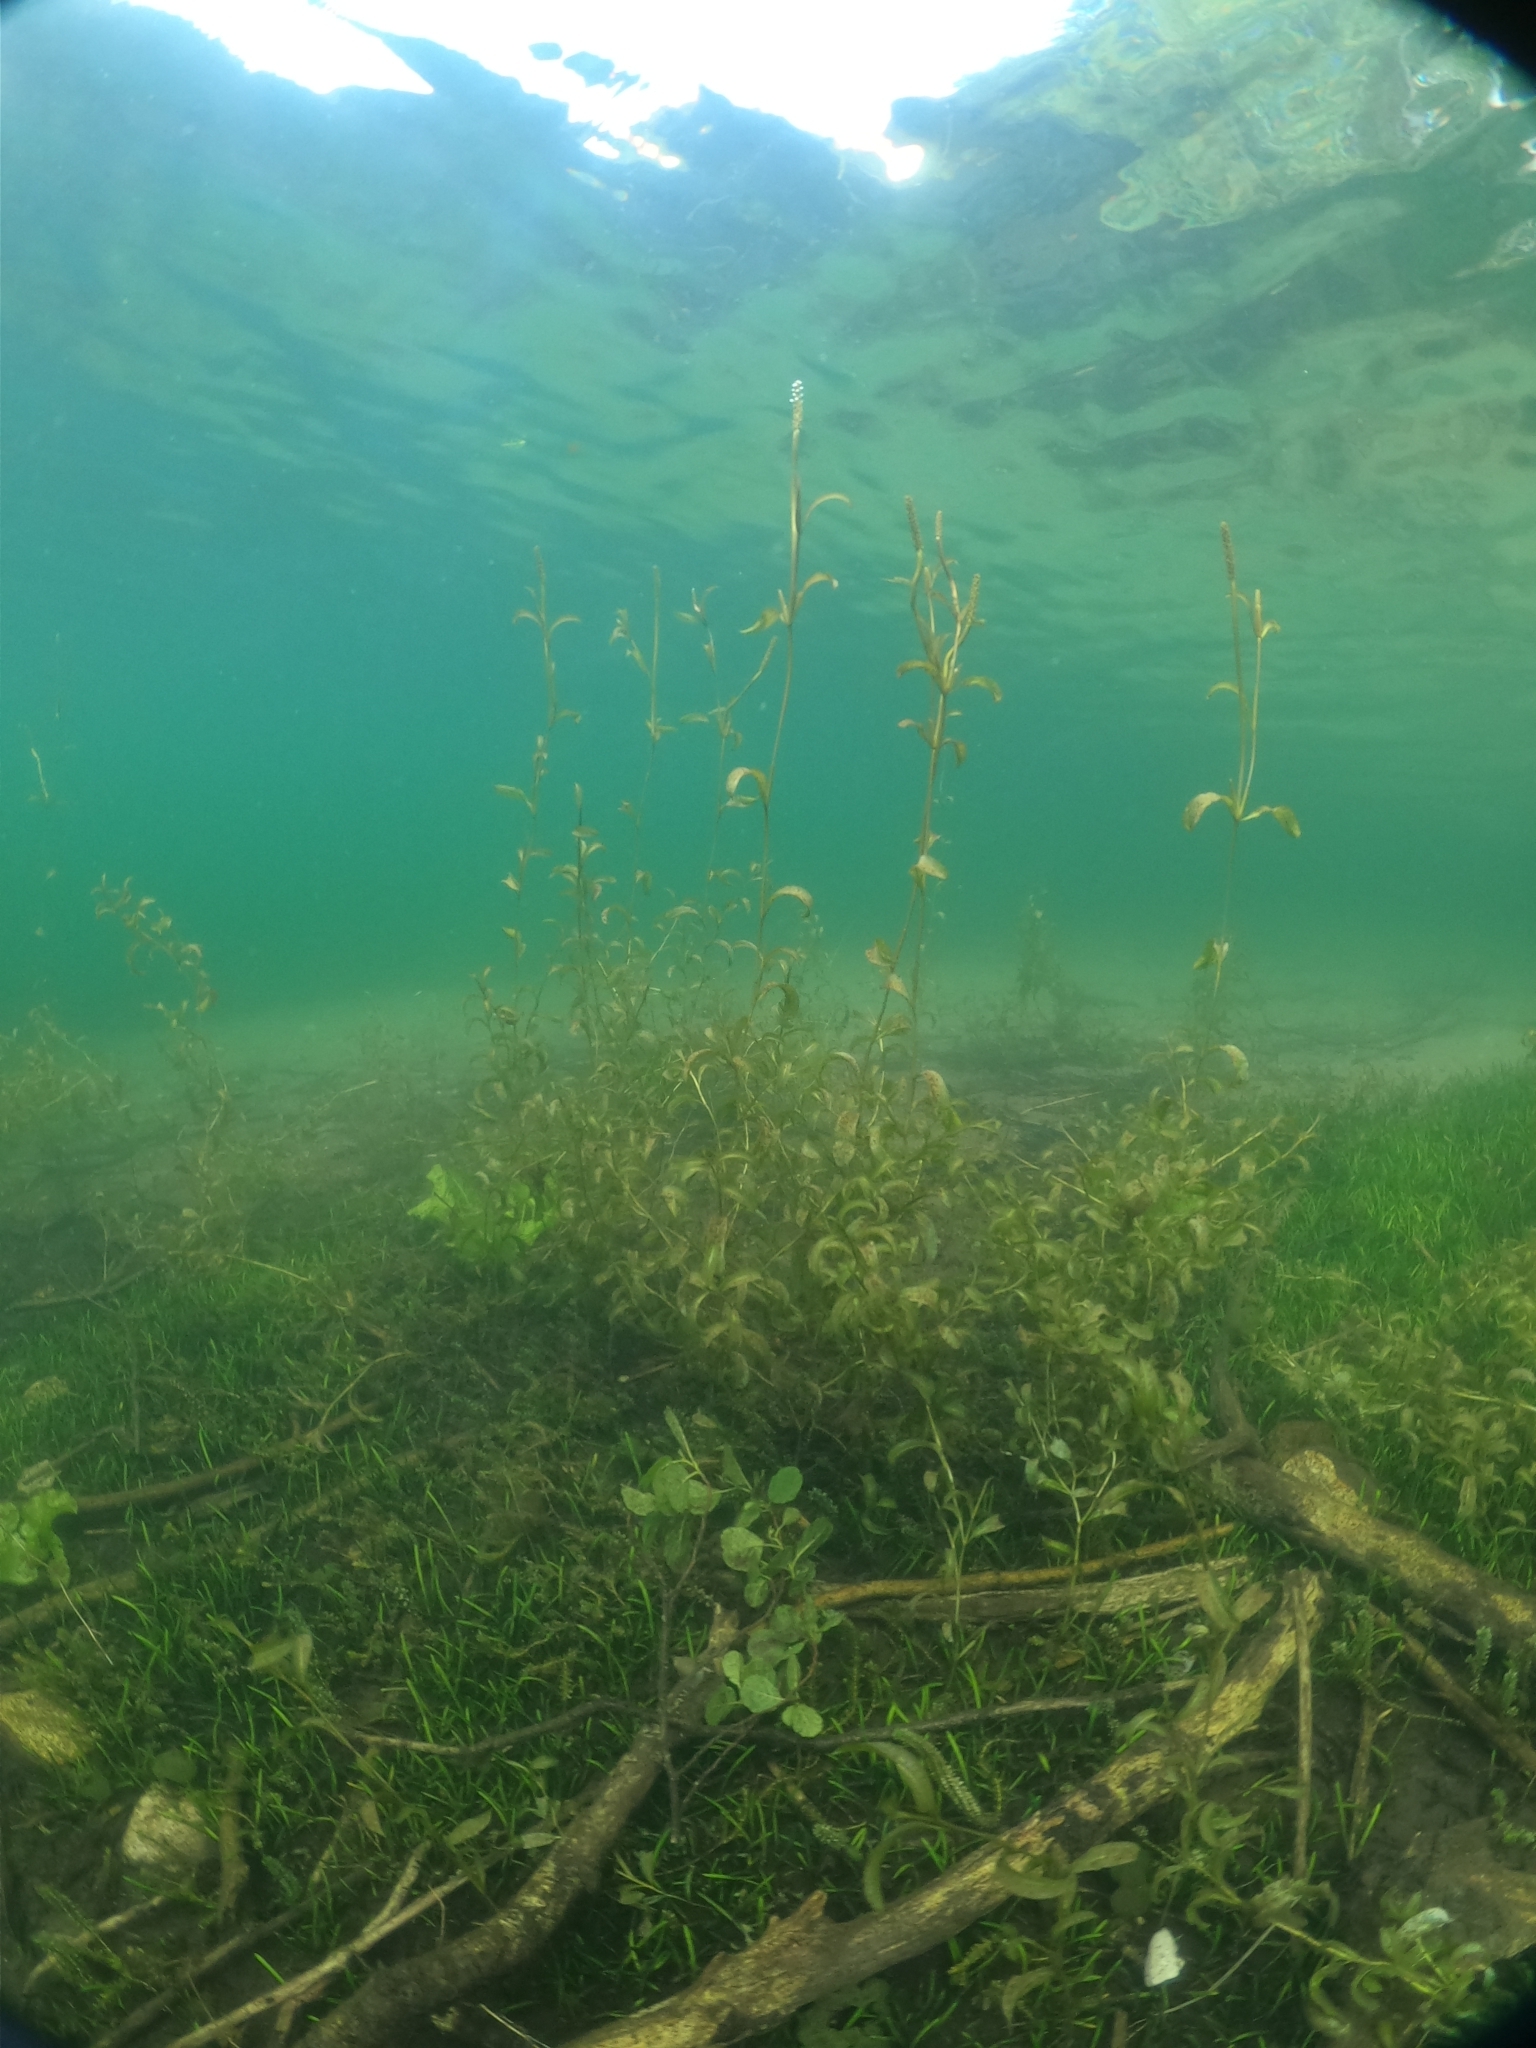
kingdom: Plantae
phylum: Tracheophyta
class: Liliopsida
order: Alismatales
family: Potamogetonaceae
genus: Potamogeton
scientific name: Potamogeton angustifolius
